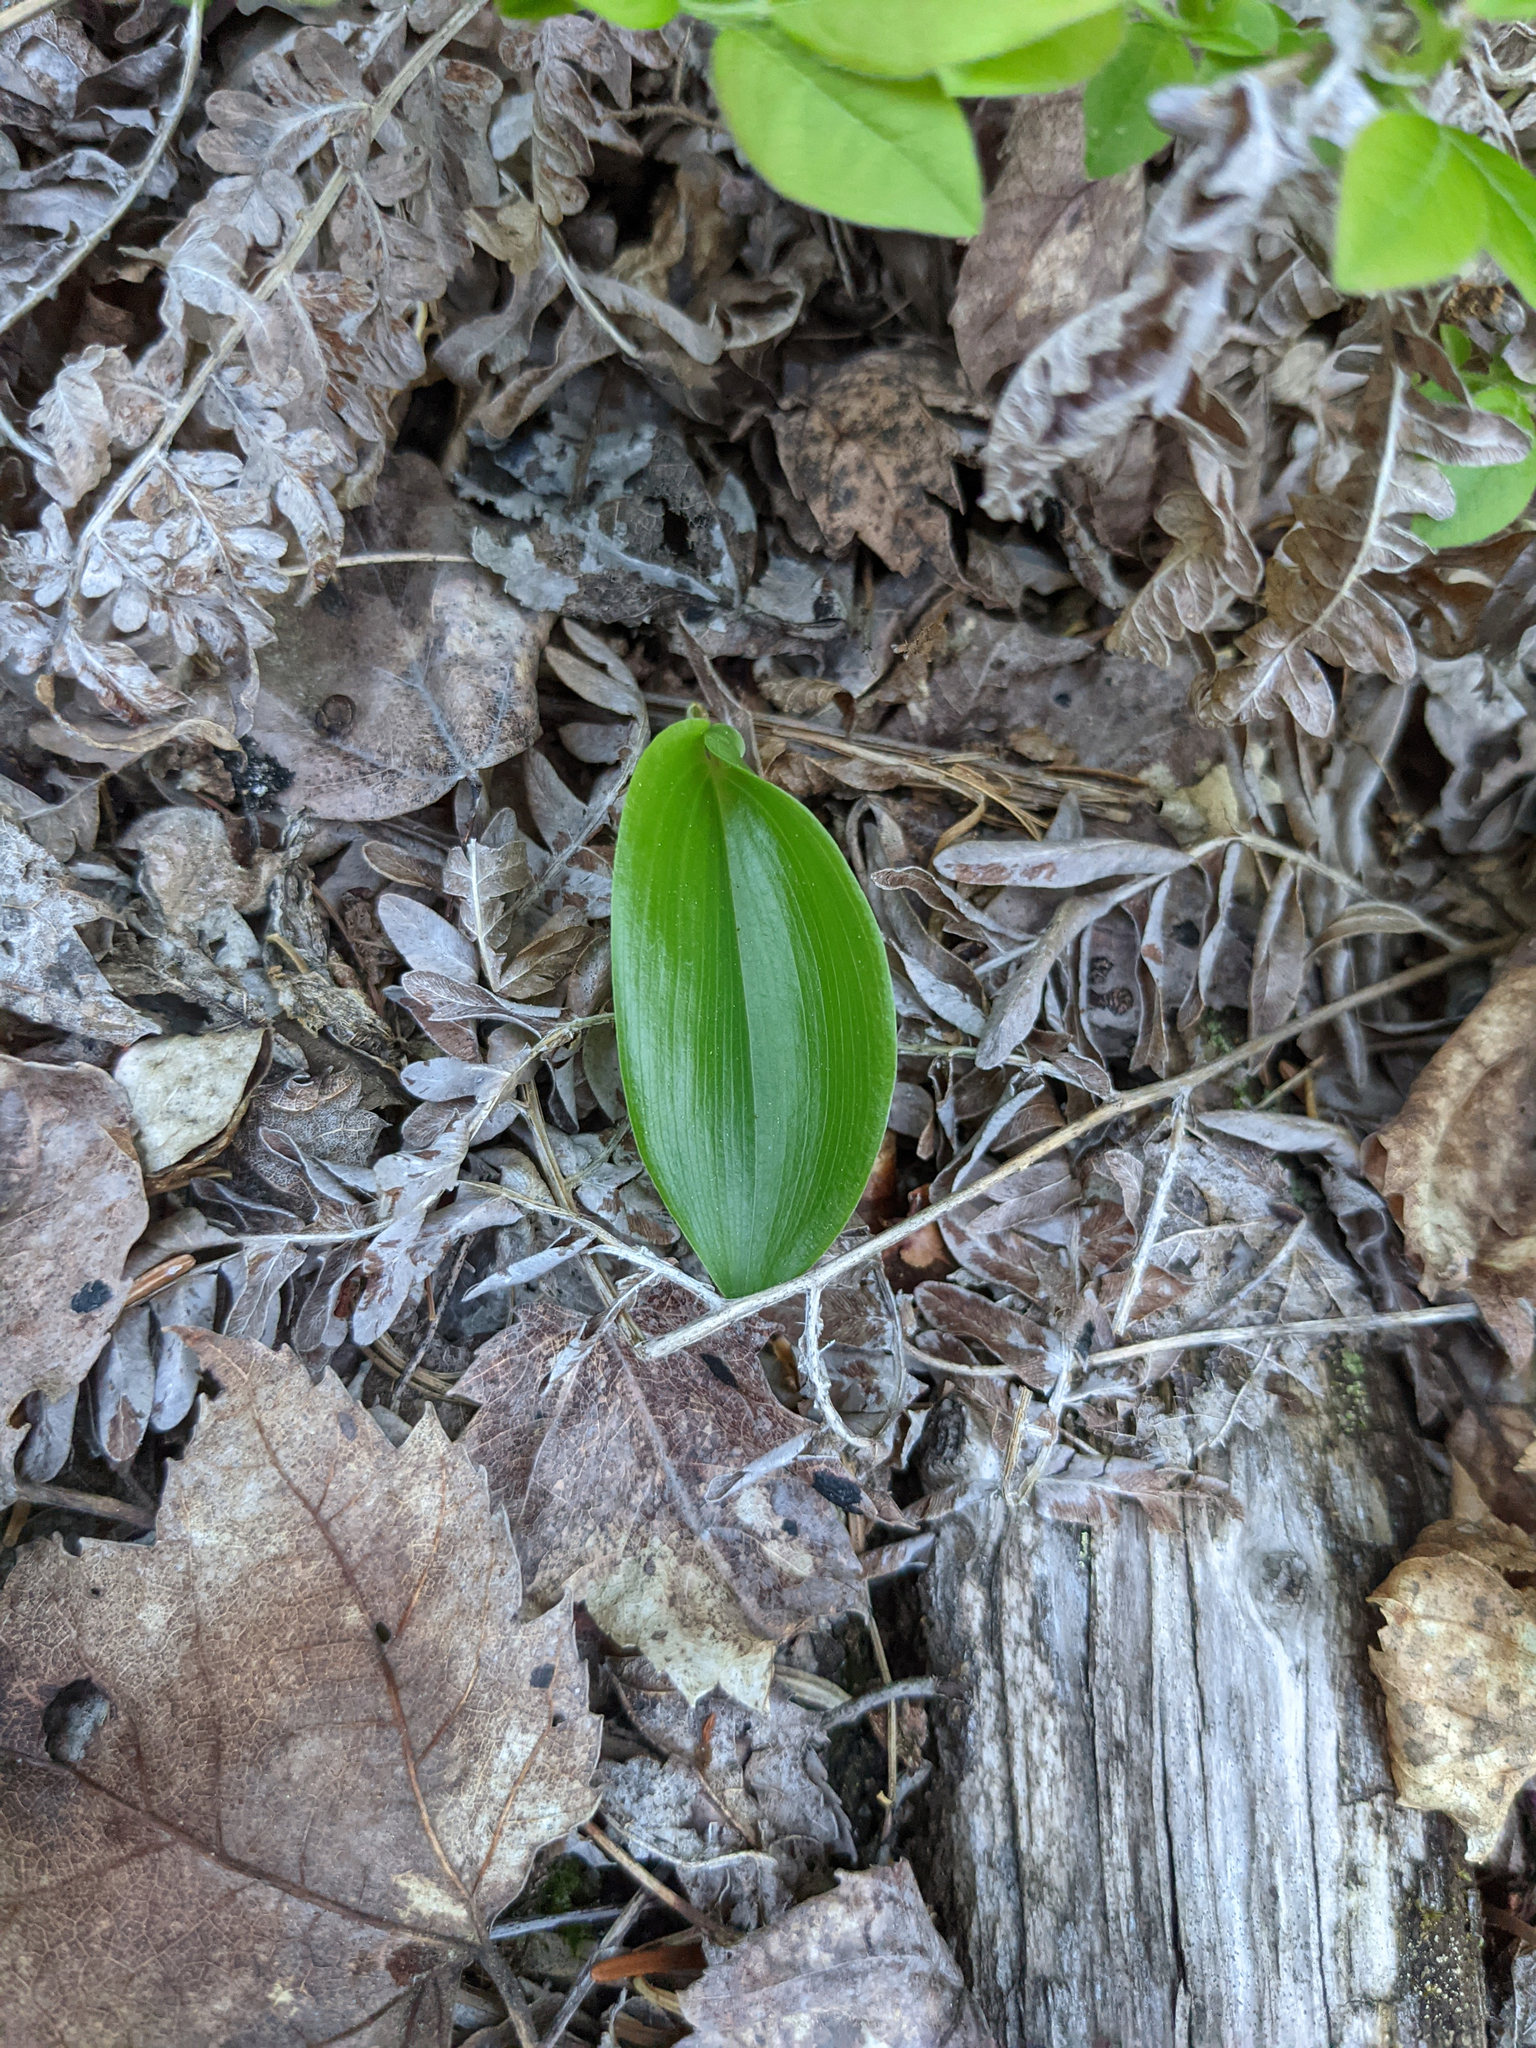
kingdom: Plantae
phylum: Tracheophyta
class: Liliopsida
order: Asparagales
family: Asparagaceae
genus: Maianthemum
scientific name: Maianthemum canadense
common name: False lily-of-the-valley
